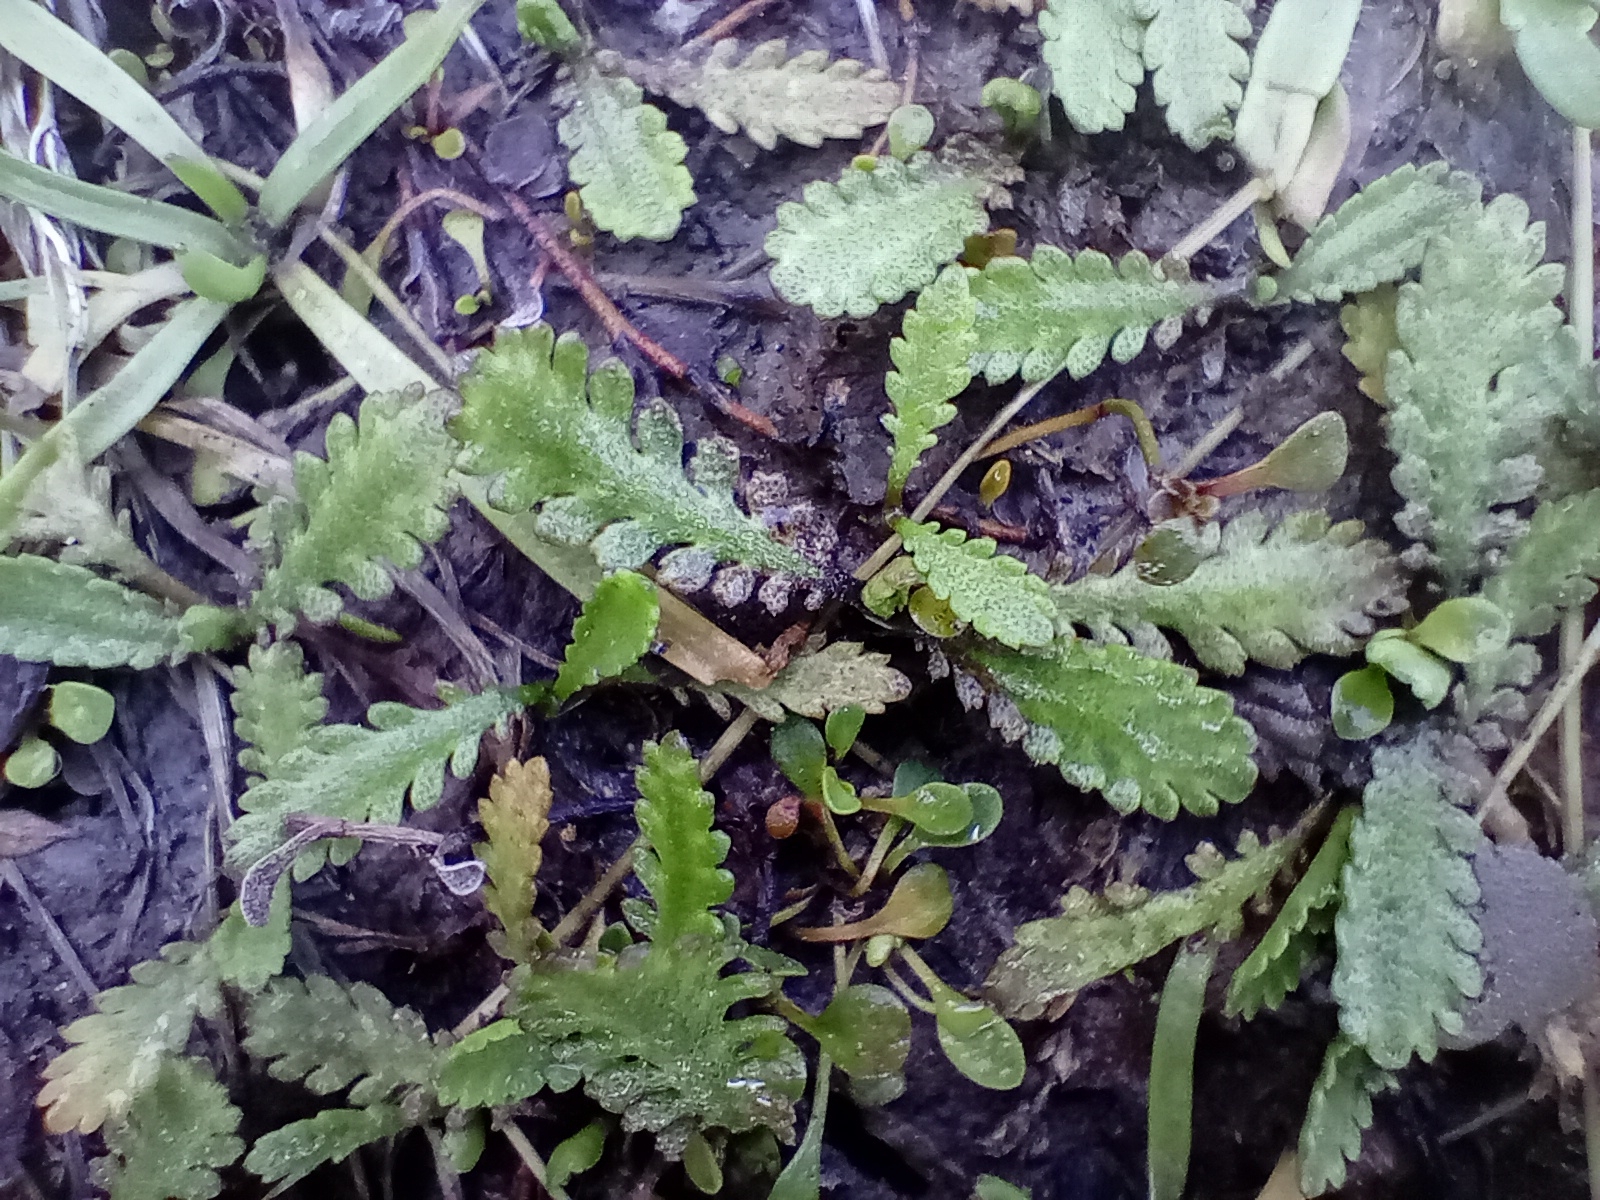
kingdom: Plantae
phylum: Tracheophyta
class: Magnoliopsida
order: Asterales
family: Asteraceae
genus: Leptinella
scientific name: Leptinella dioica
